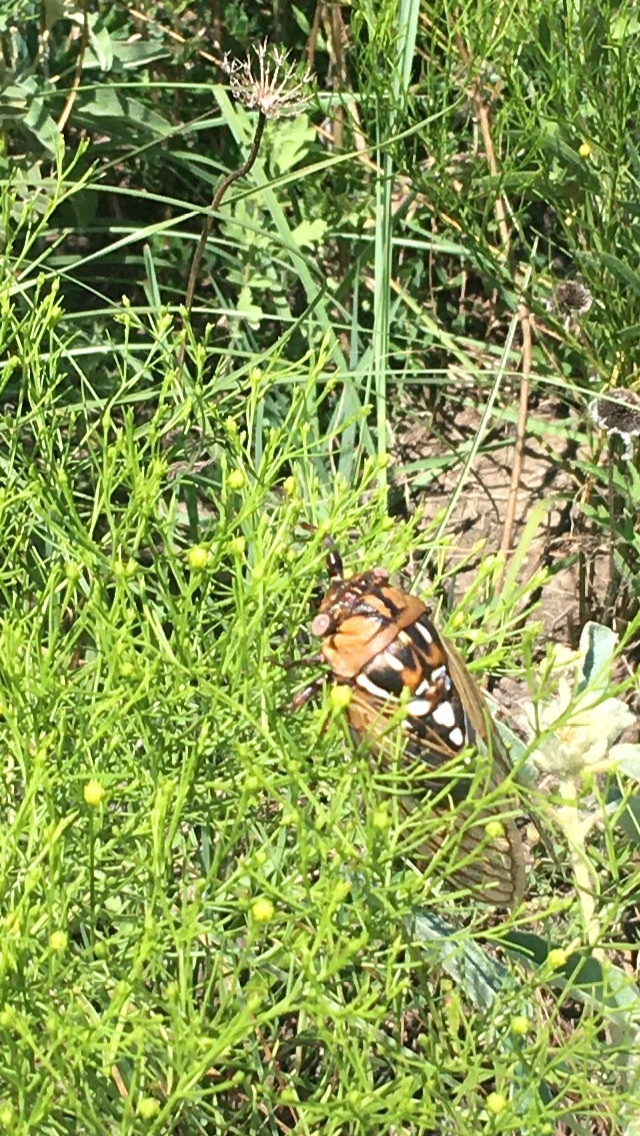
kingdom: Animalia
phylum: Arthropoda
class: Insecta
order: Hemiptera
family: Cicadidae
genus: Megatibicen
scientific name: Megatibicen dorsatus
